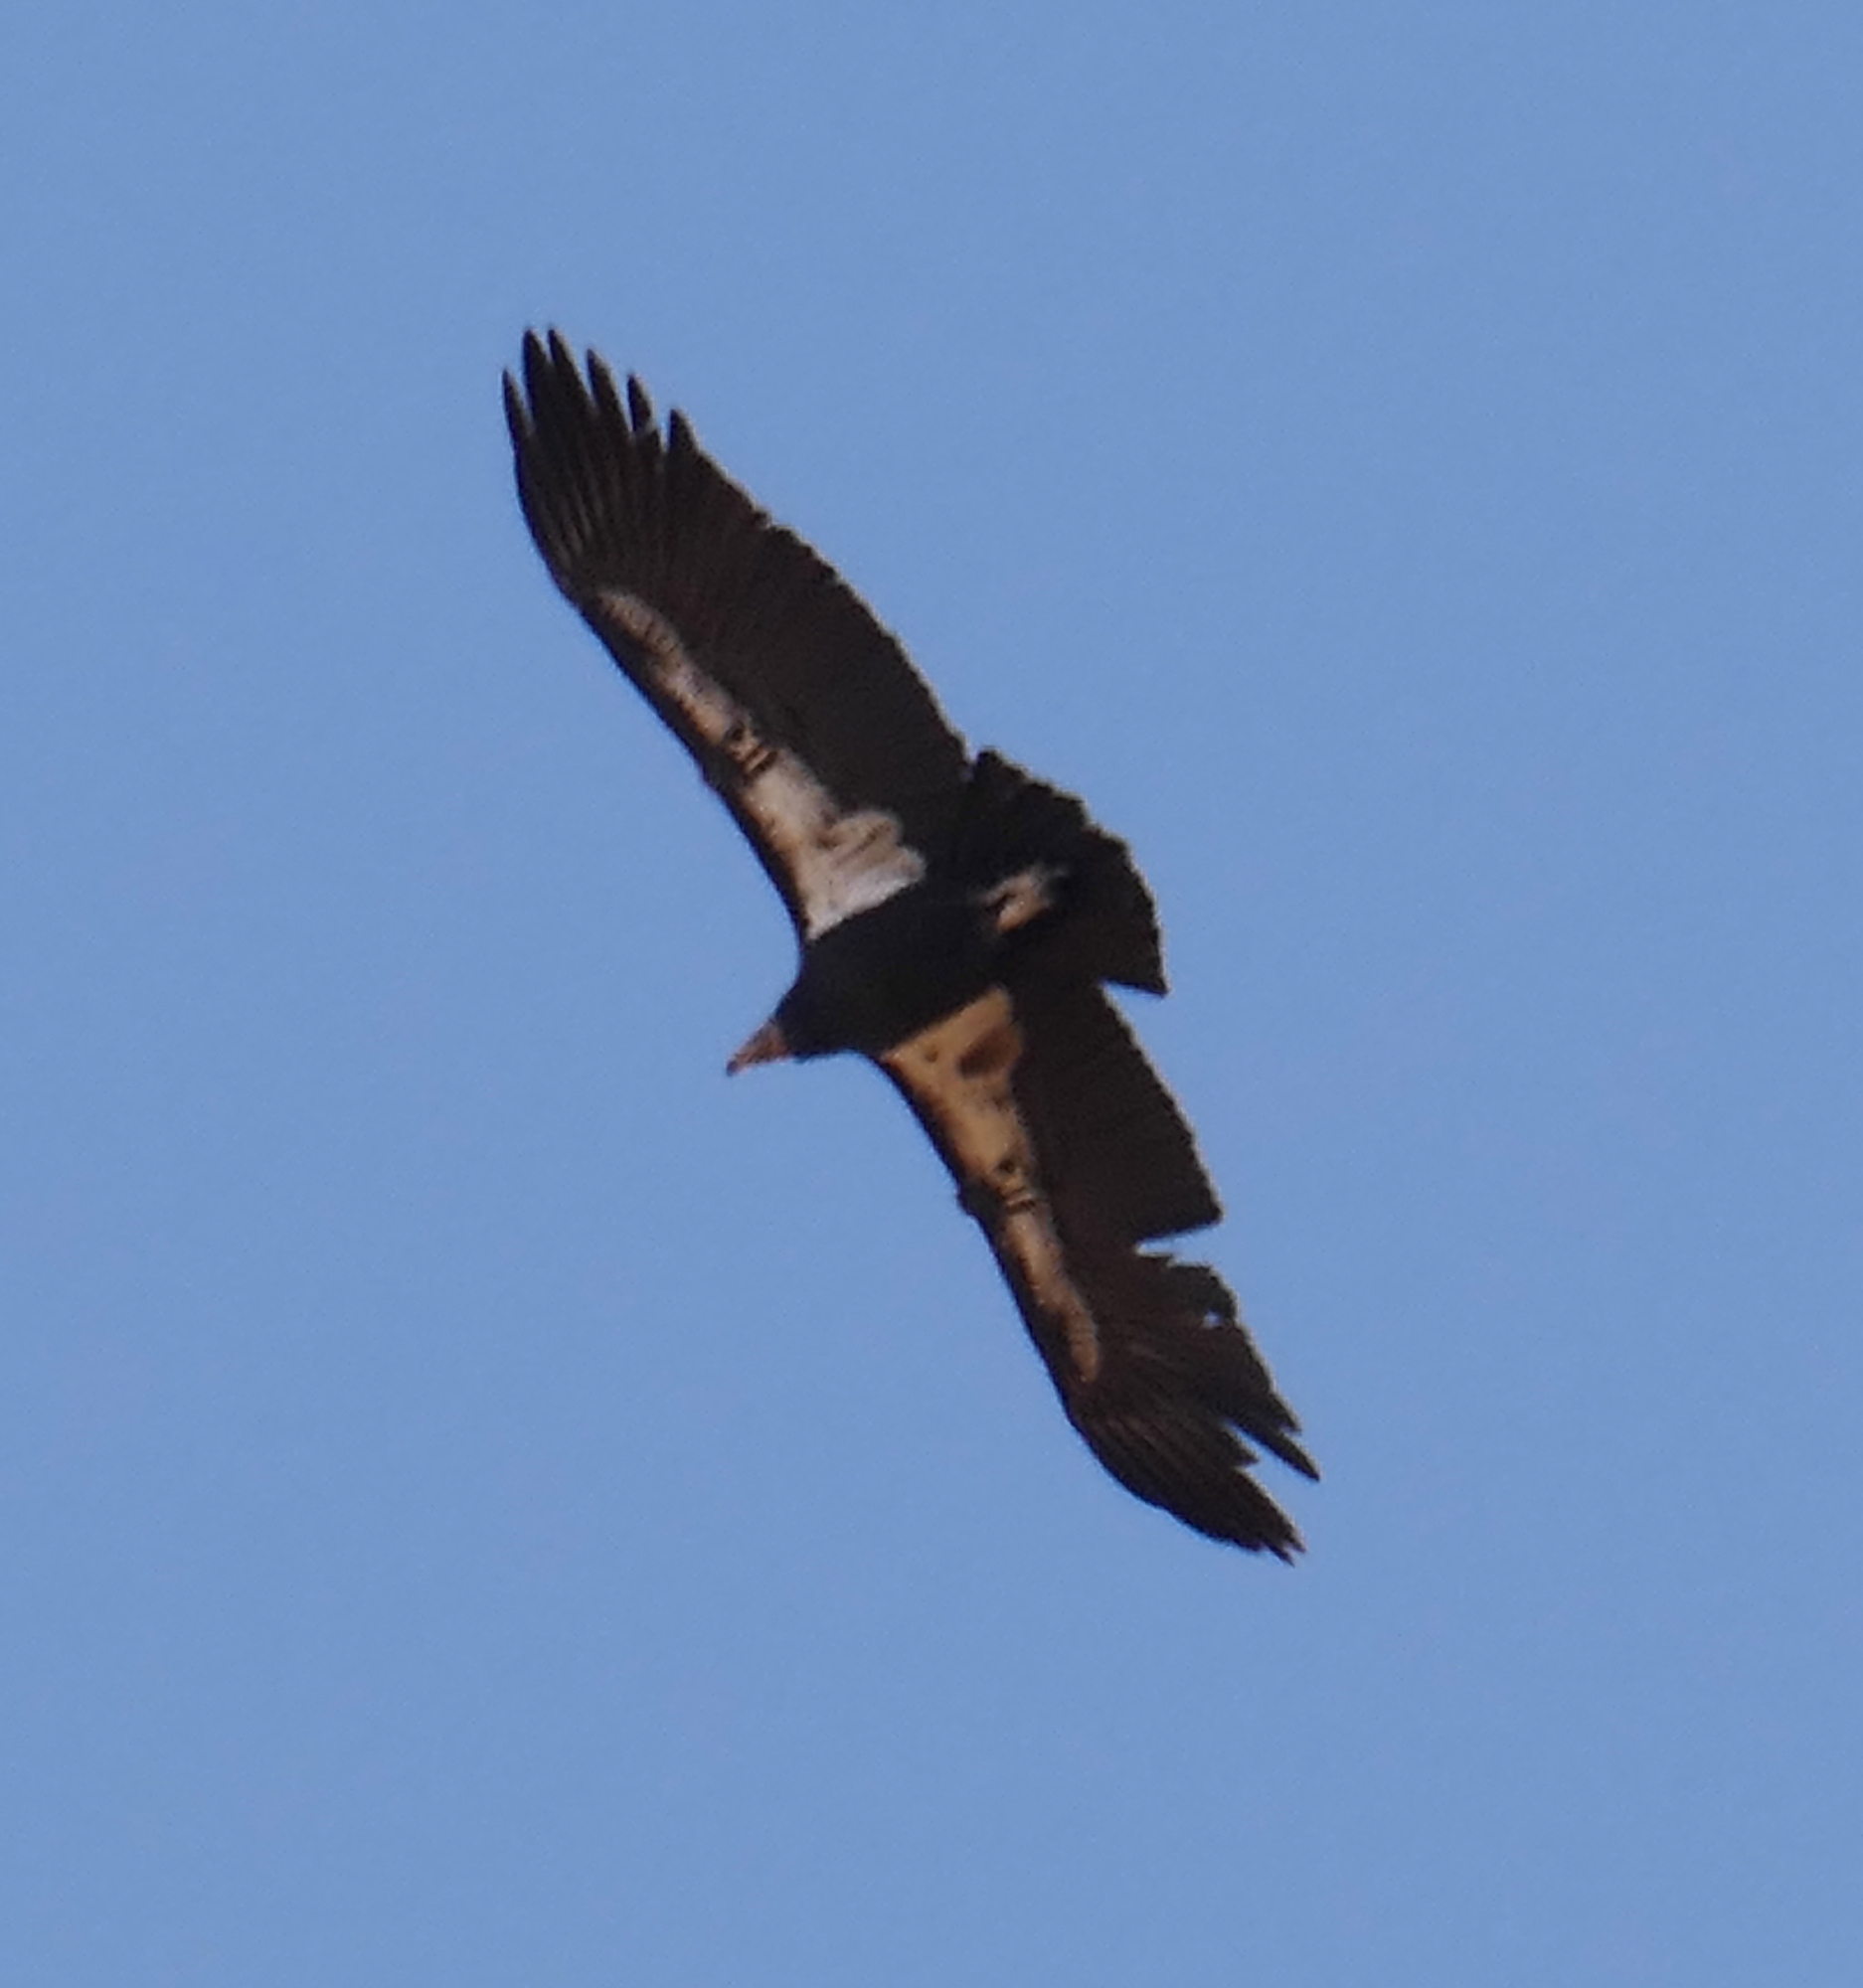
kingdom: Animalia
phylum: Chordata
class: Aves
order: Accipitriformes
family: Cathartidae
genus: Gymnogyps
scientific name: Gymnogyps californianus
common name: California condor
